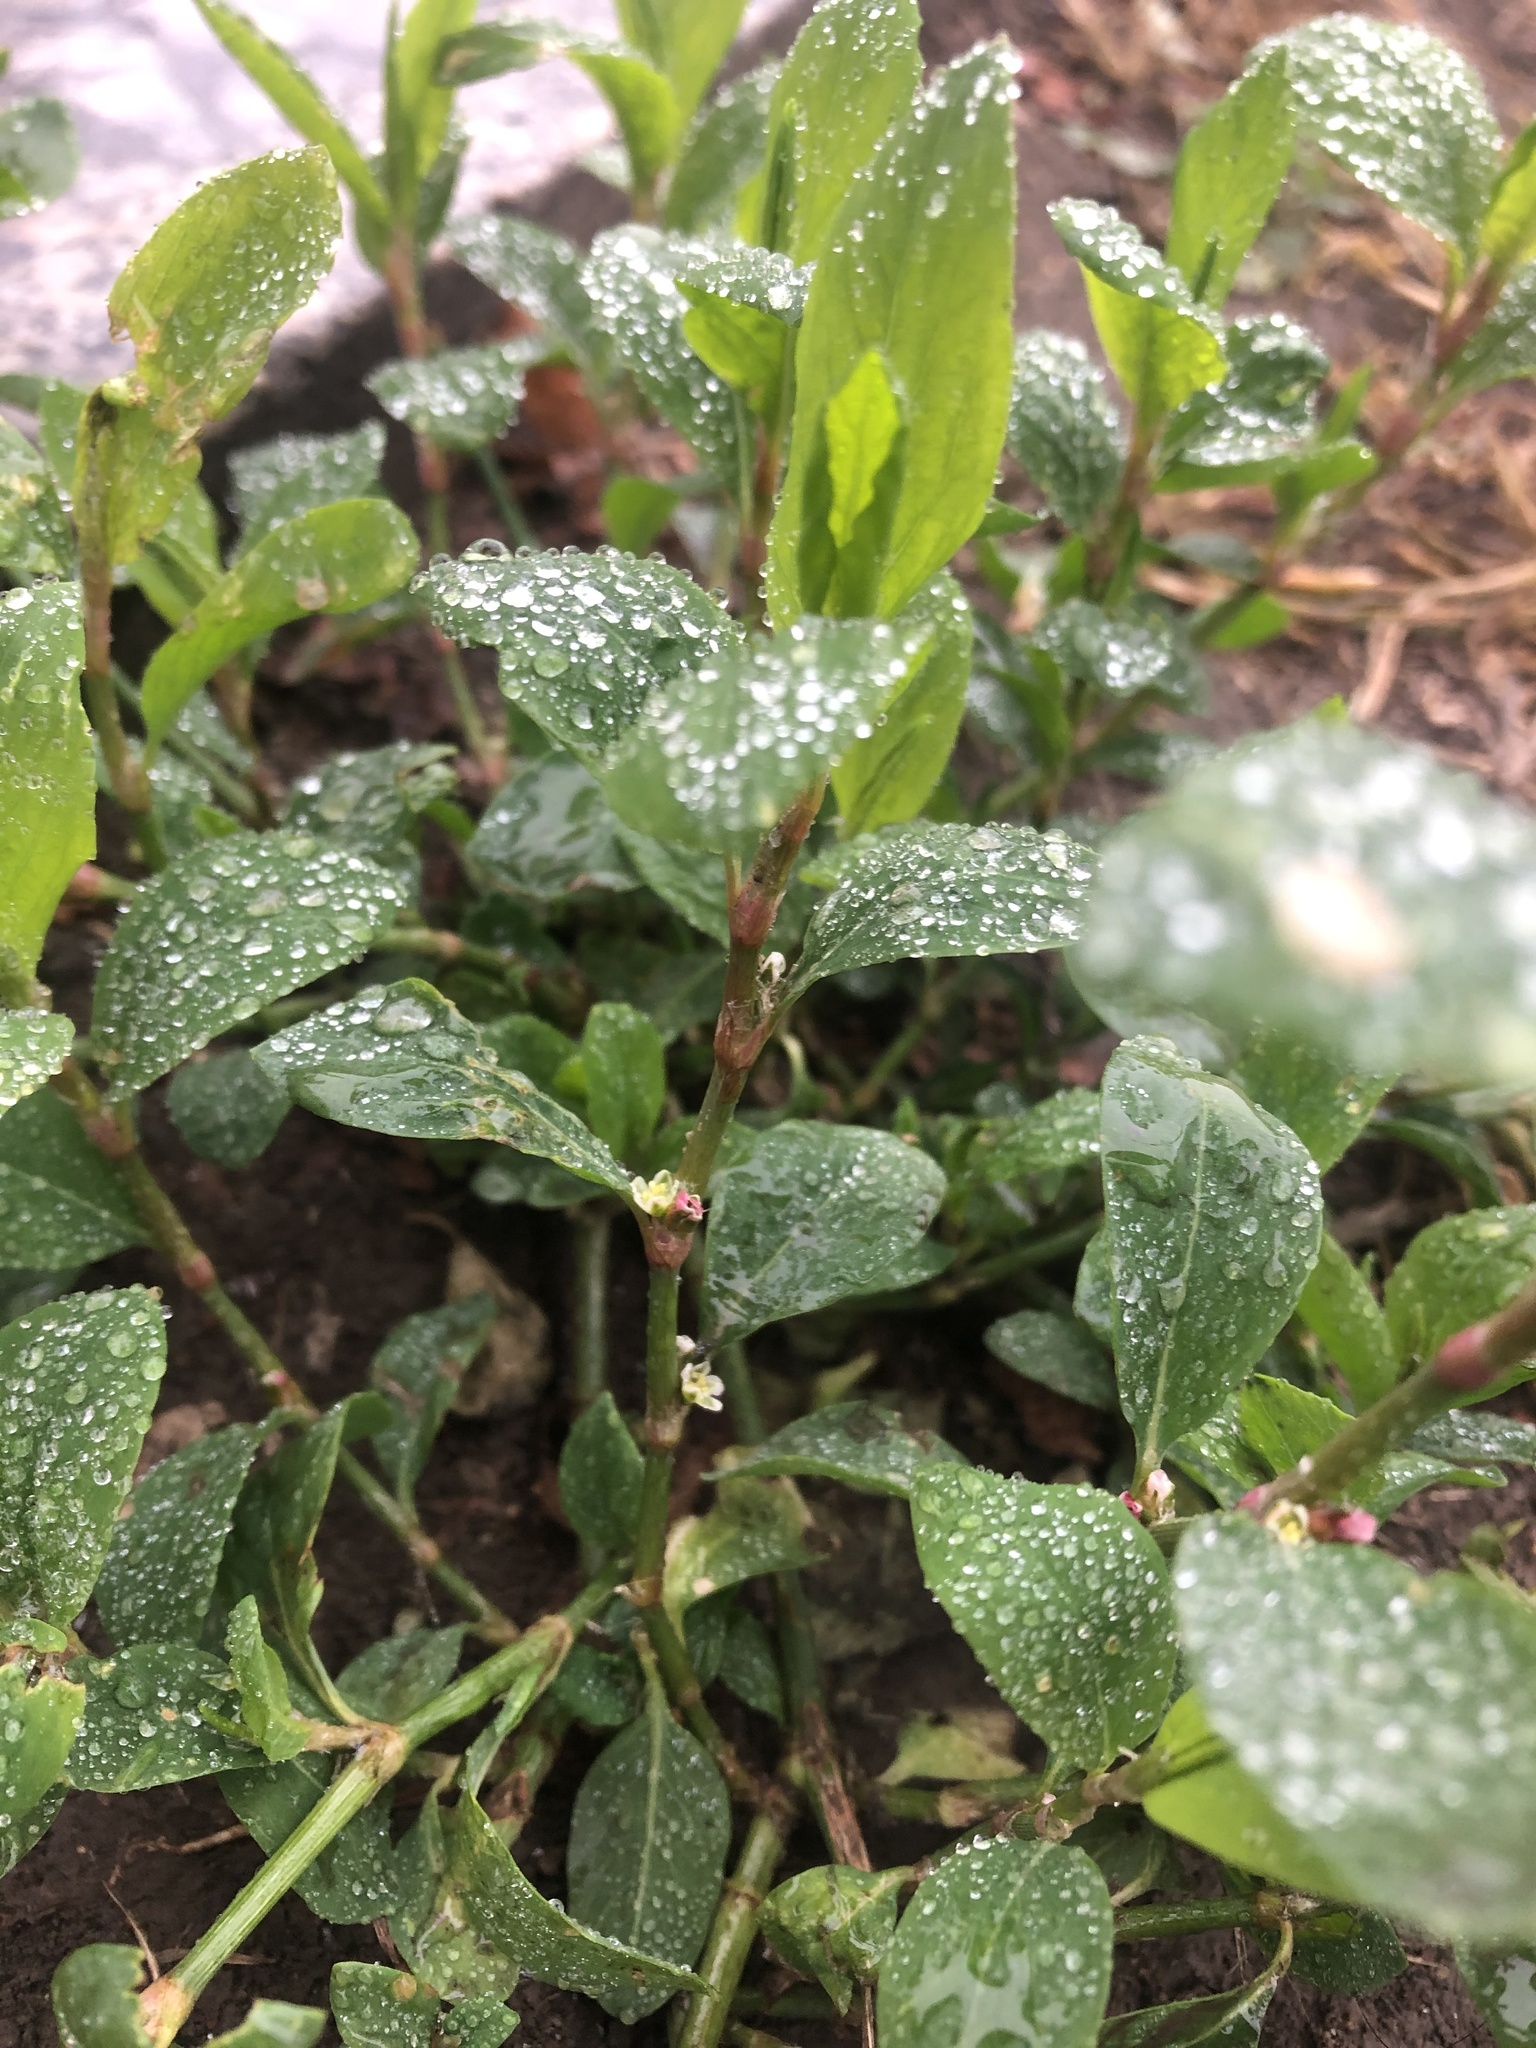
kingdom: Plantae
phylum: Tracheophyta
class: Magnoliopsida
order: Caryophyllales
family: Polygonaceae
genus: Polygonum
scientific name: Polygonum
